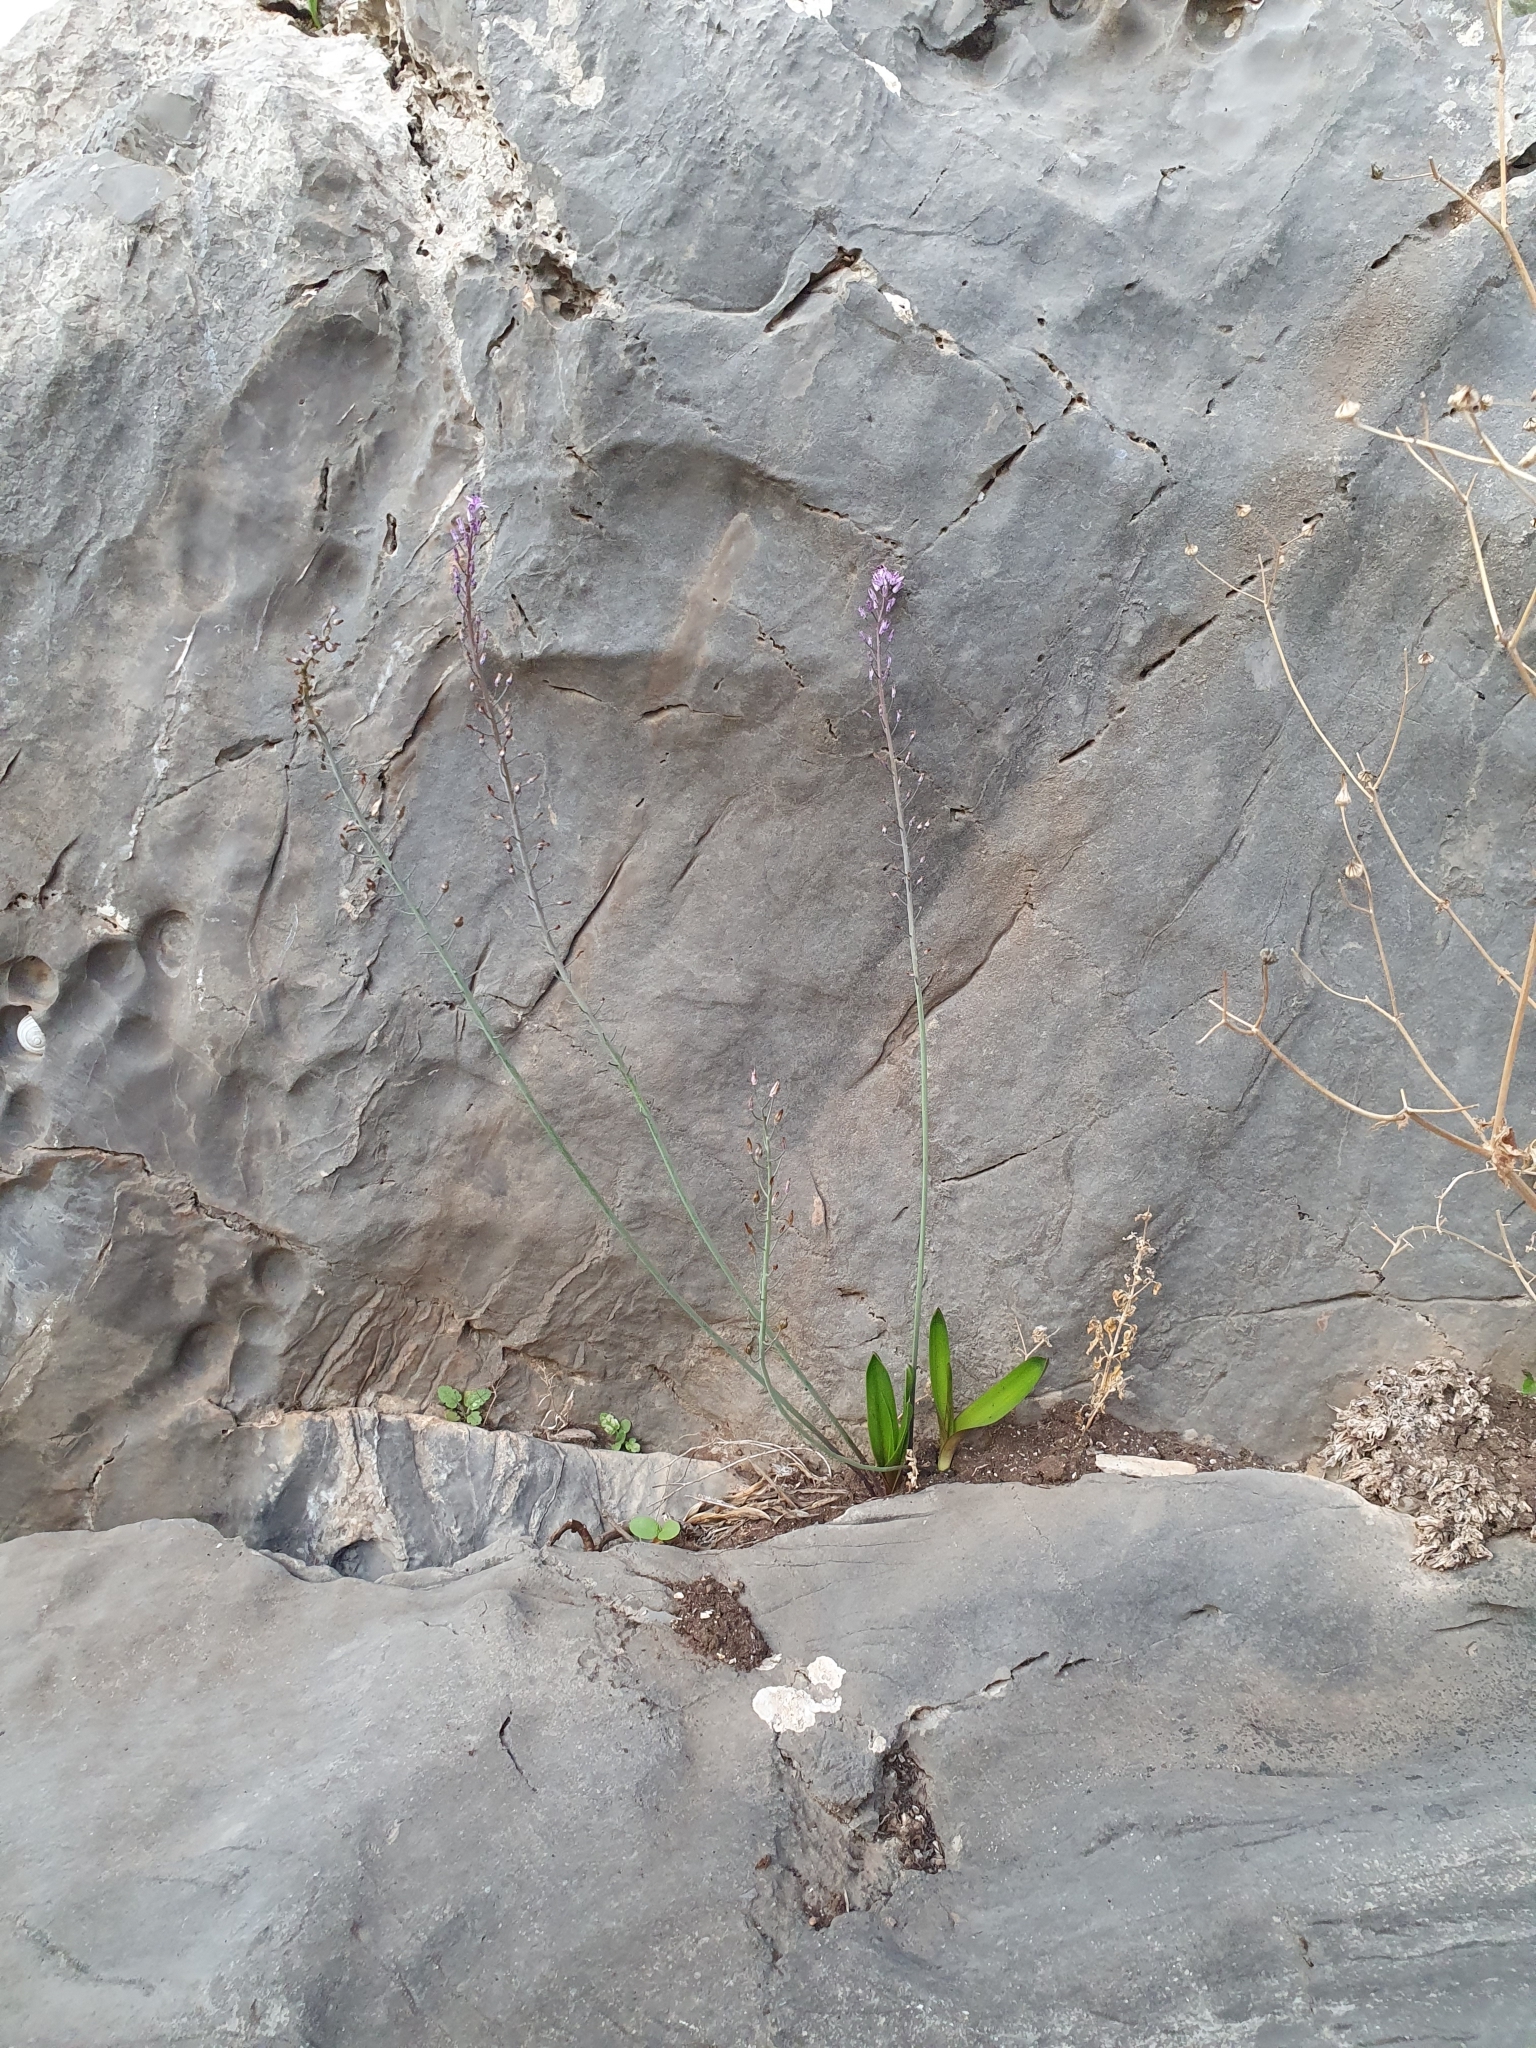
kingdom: Plantae
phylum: Tracheophyta
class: Liliopsida
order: Asparagales
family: Asparagaceae
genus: Prospero
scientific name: Prospero obtusifolium
